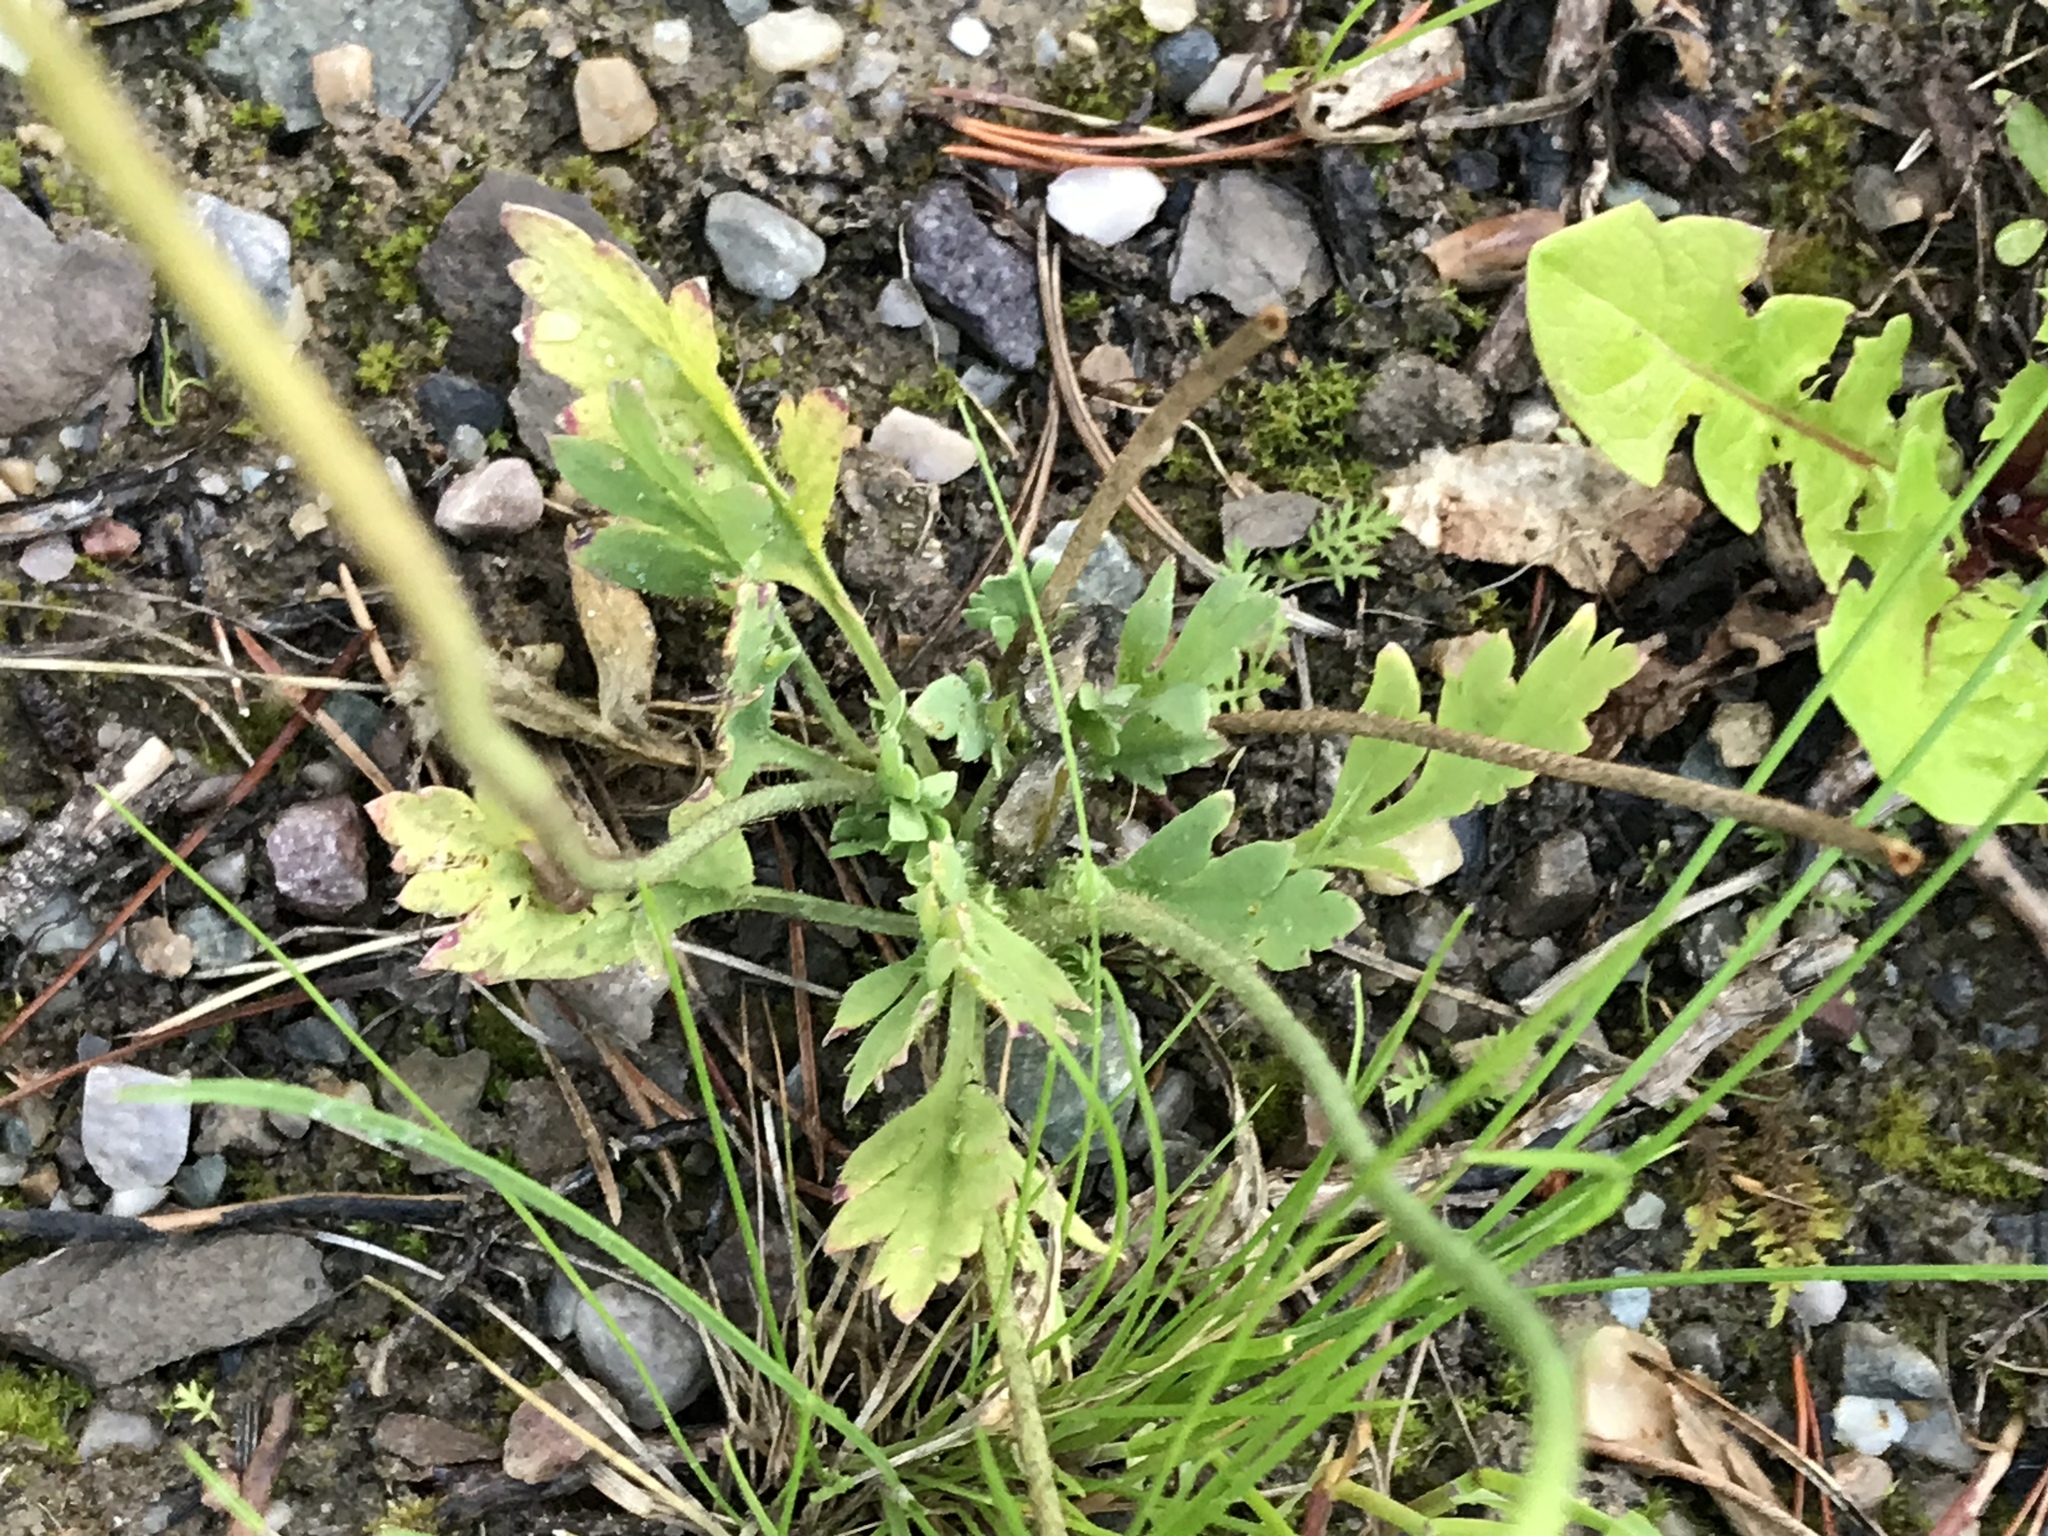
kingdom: Plantae
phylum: Tracheophyta
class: Magnoliopsida
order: Ranunculales
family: Papaveraceae
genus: Papaver
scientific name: Papaver nudicaule
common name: Arctic poppy
